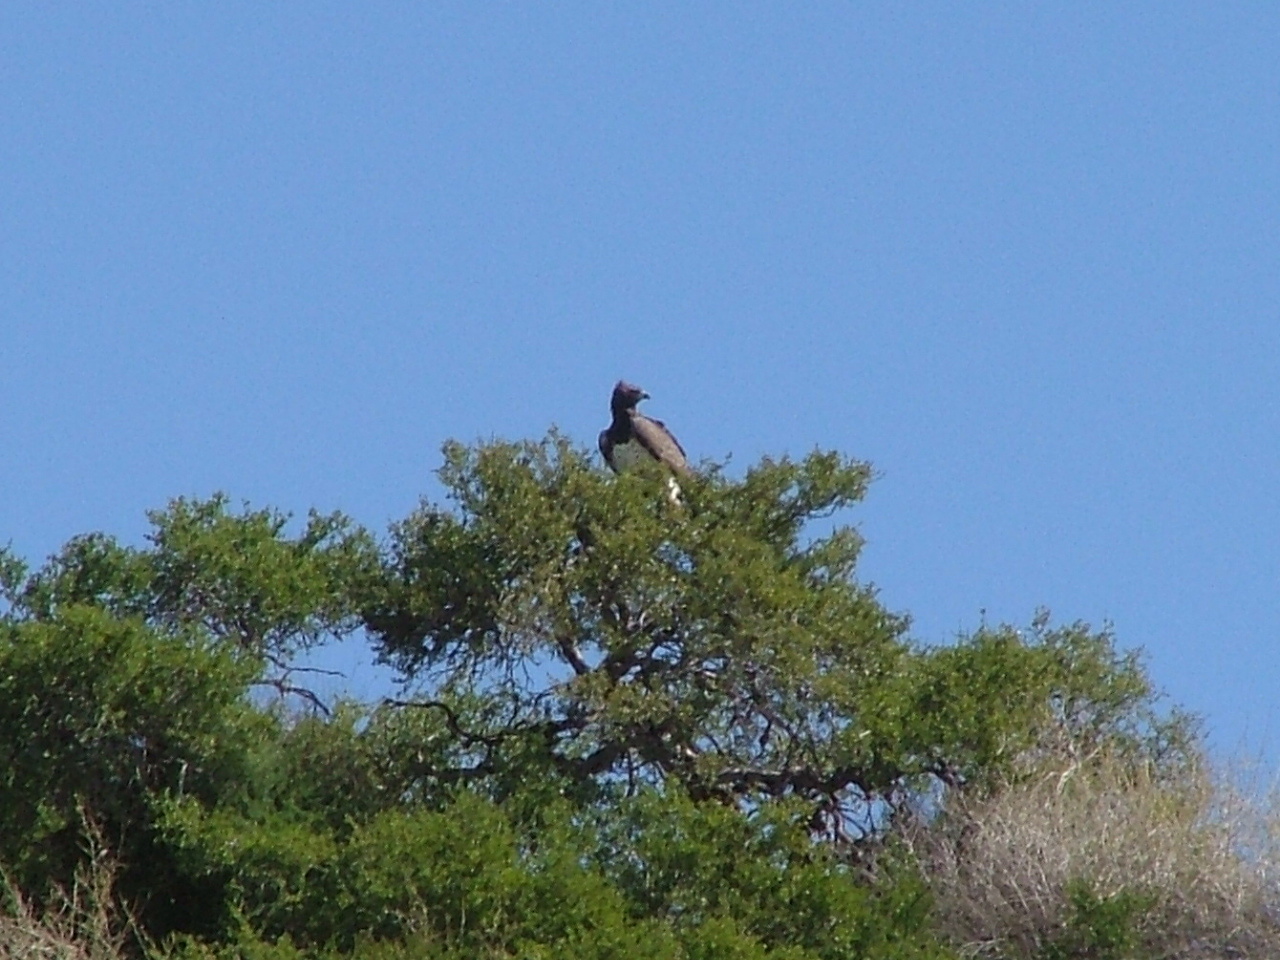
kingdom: Animalia
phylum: Chordata
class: Aves
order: Accipitriformes
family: Accipitridae
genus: Polemaetus
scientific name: Polemaetus bellicosus
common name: Martial eagle
